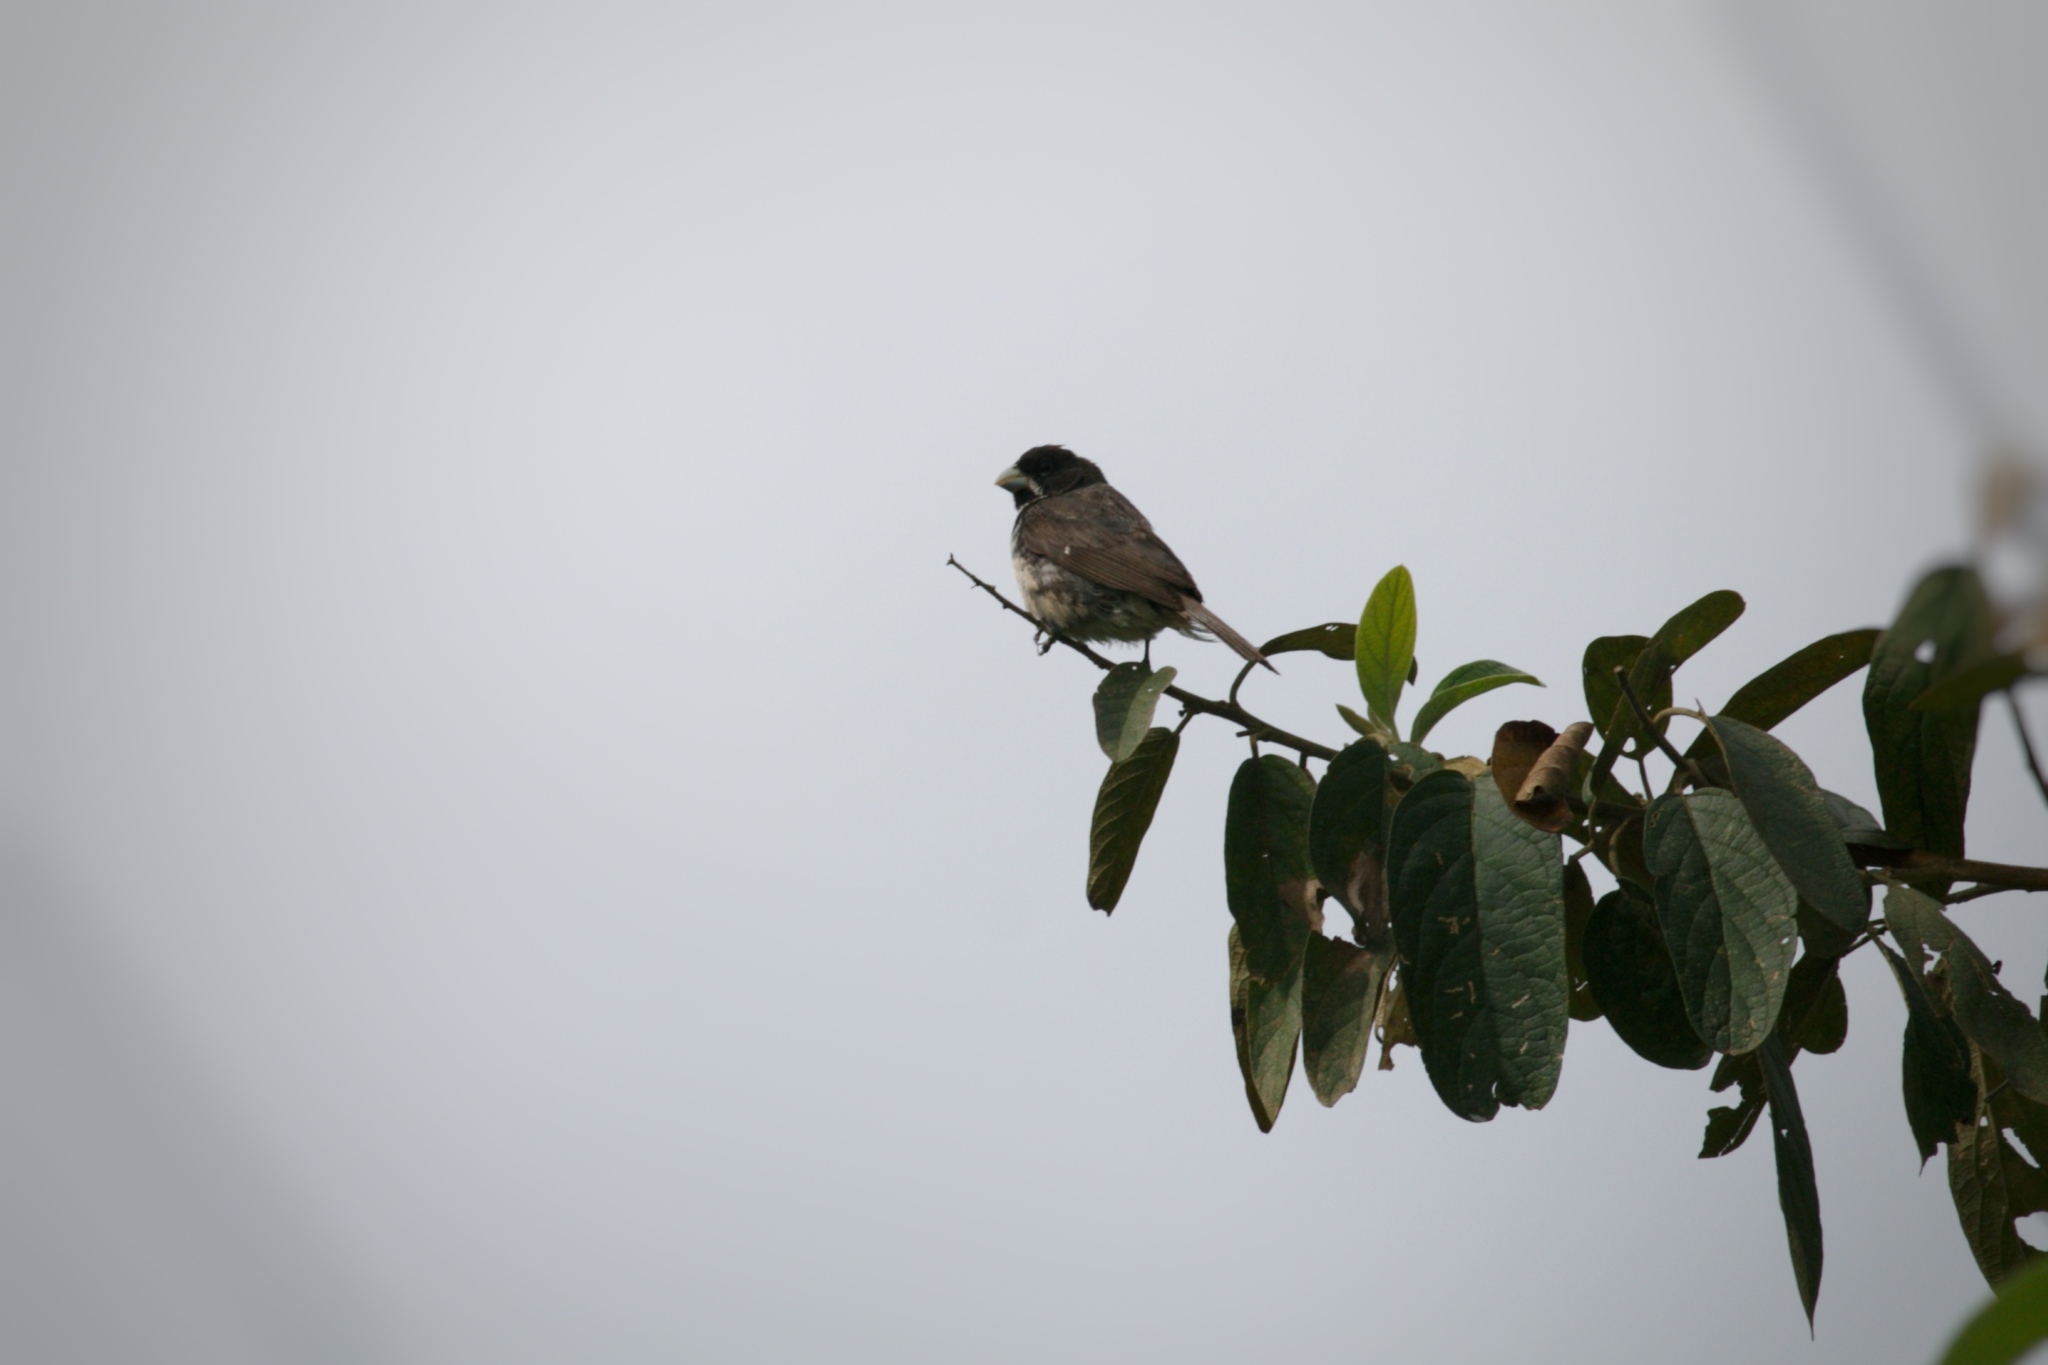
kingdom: Animalia
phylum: Chordata
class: Aves
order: Passeriformes
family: Thraupidae
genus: Sporophila
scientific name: Sporophila caerulescens
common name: Double-collared seedeater
